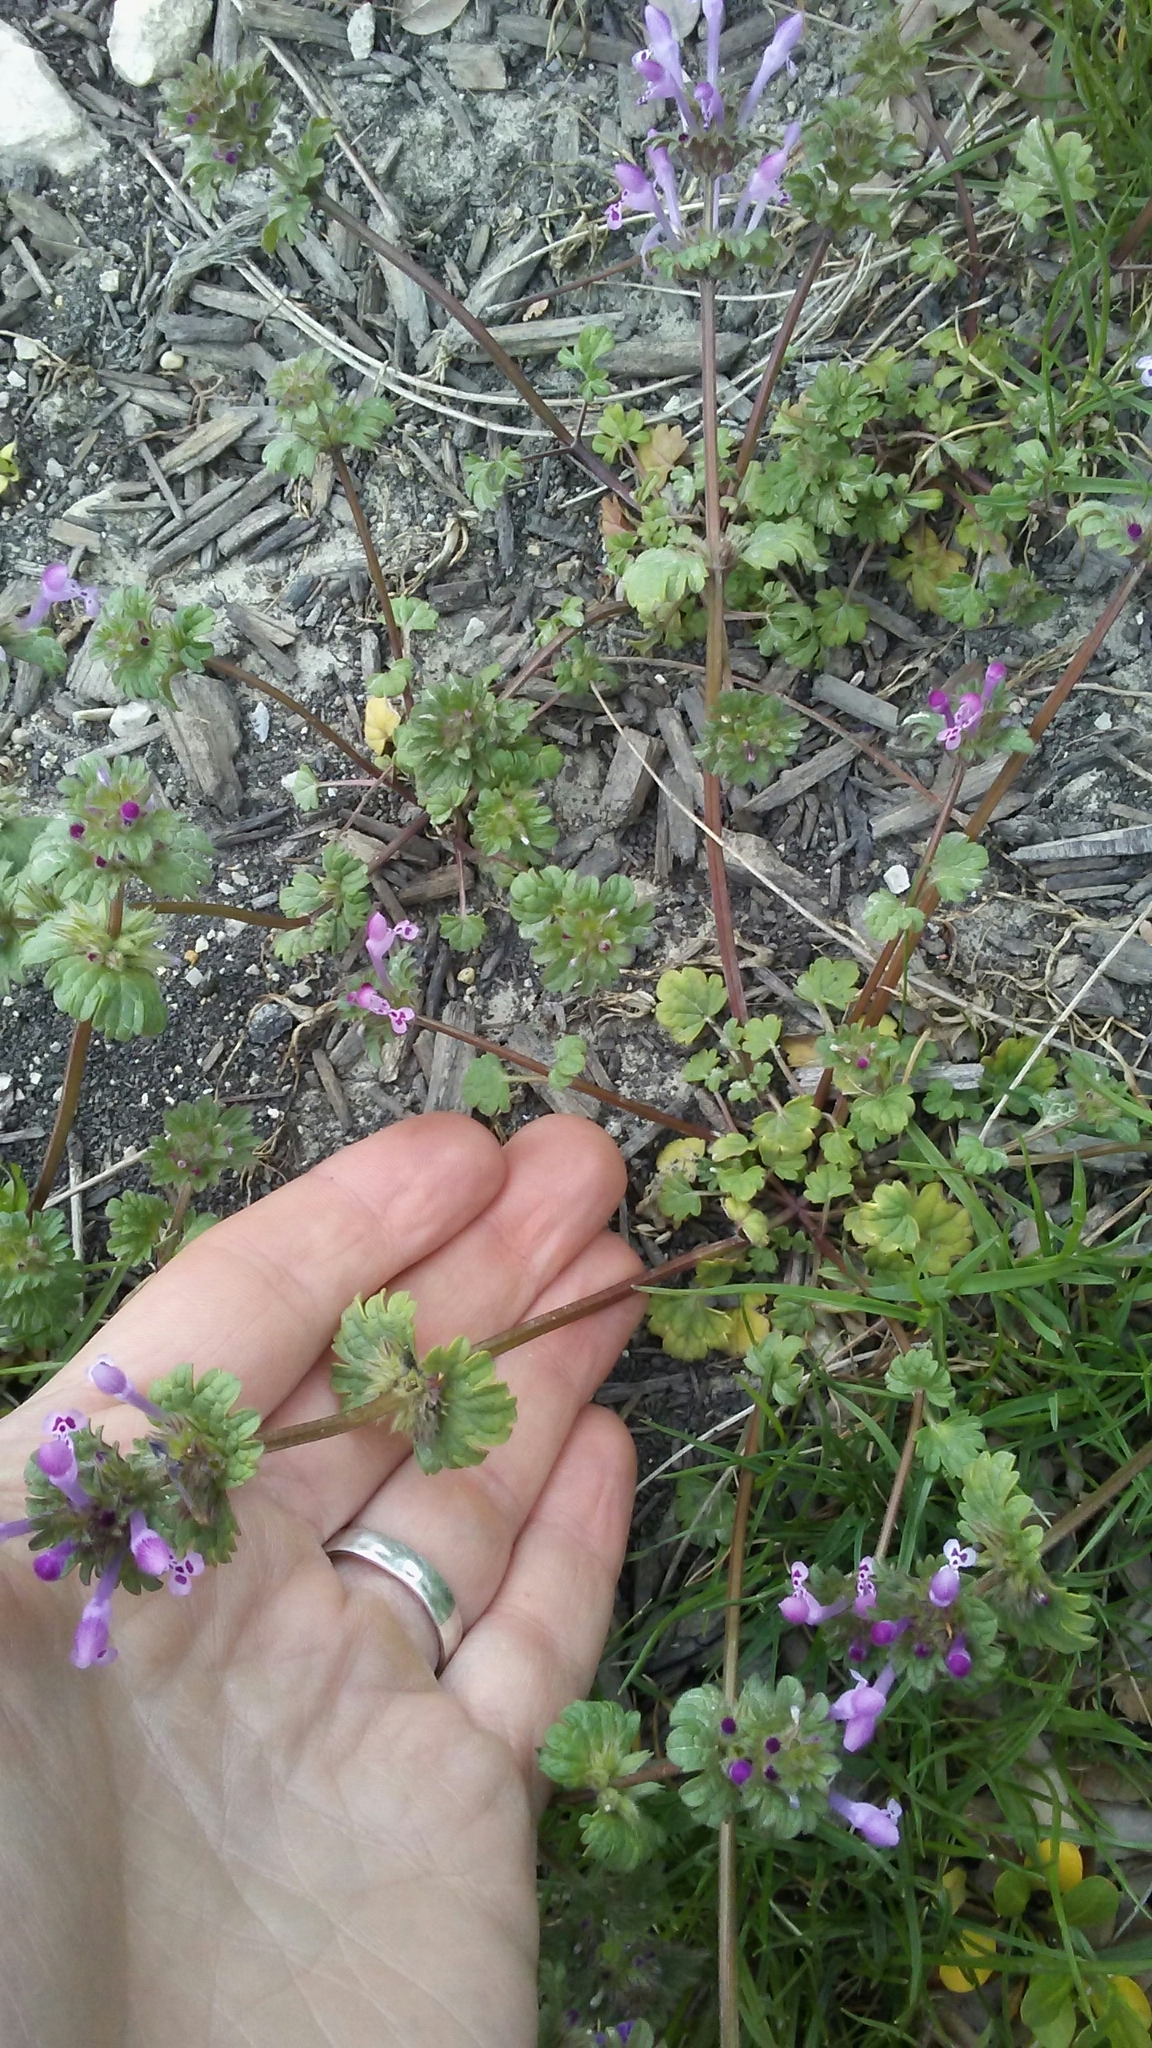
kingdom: Plantae
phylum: Tracheophyta
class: Magnoliopsida
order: Lamiales
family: Lamiaceae
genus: Lamium
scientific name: Lamium amplexicaule
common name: Henbit dead-nettle
